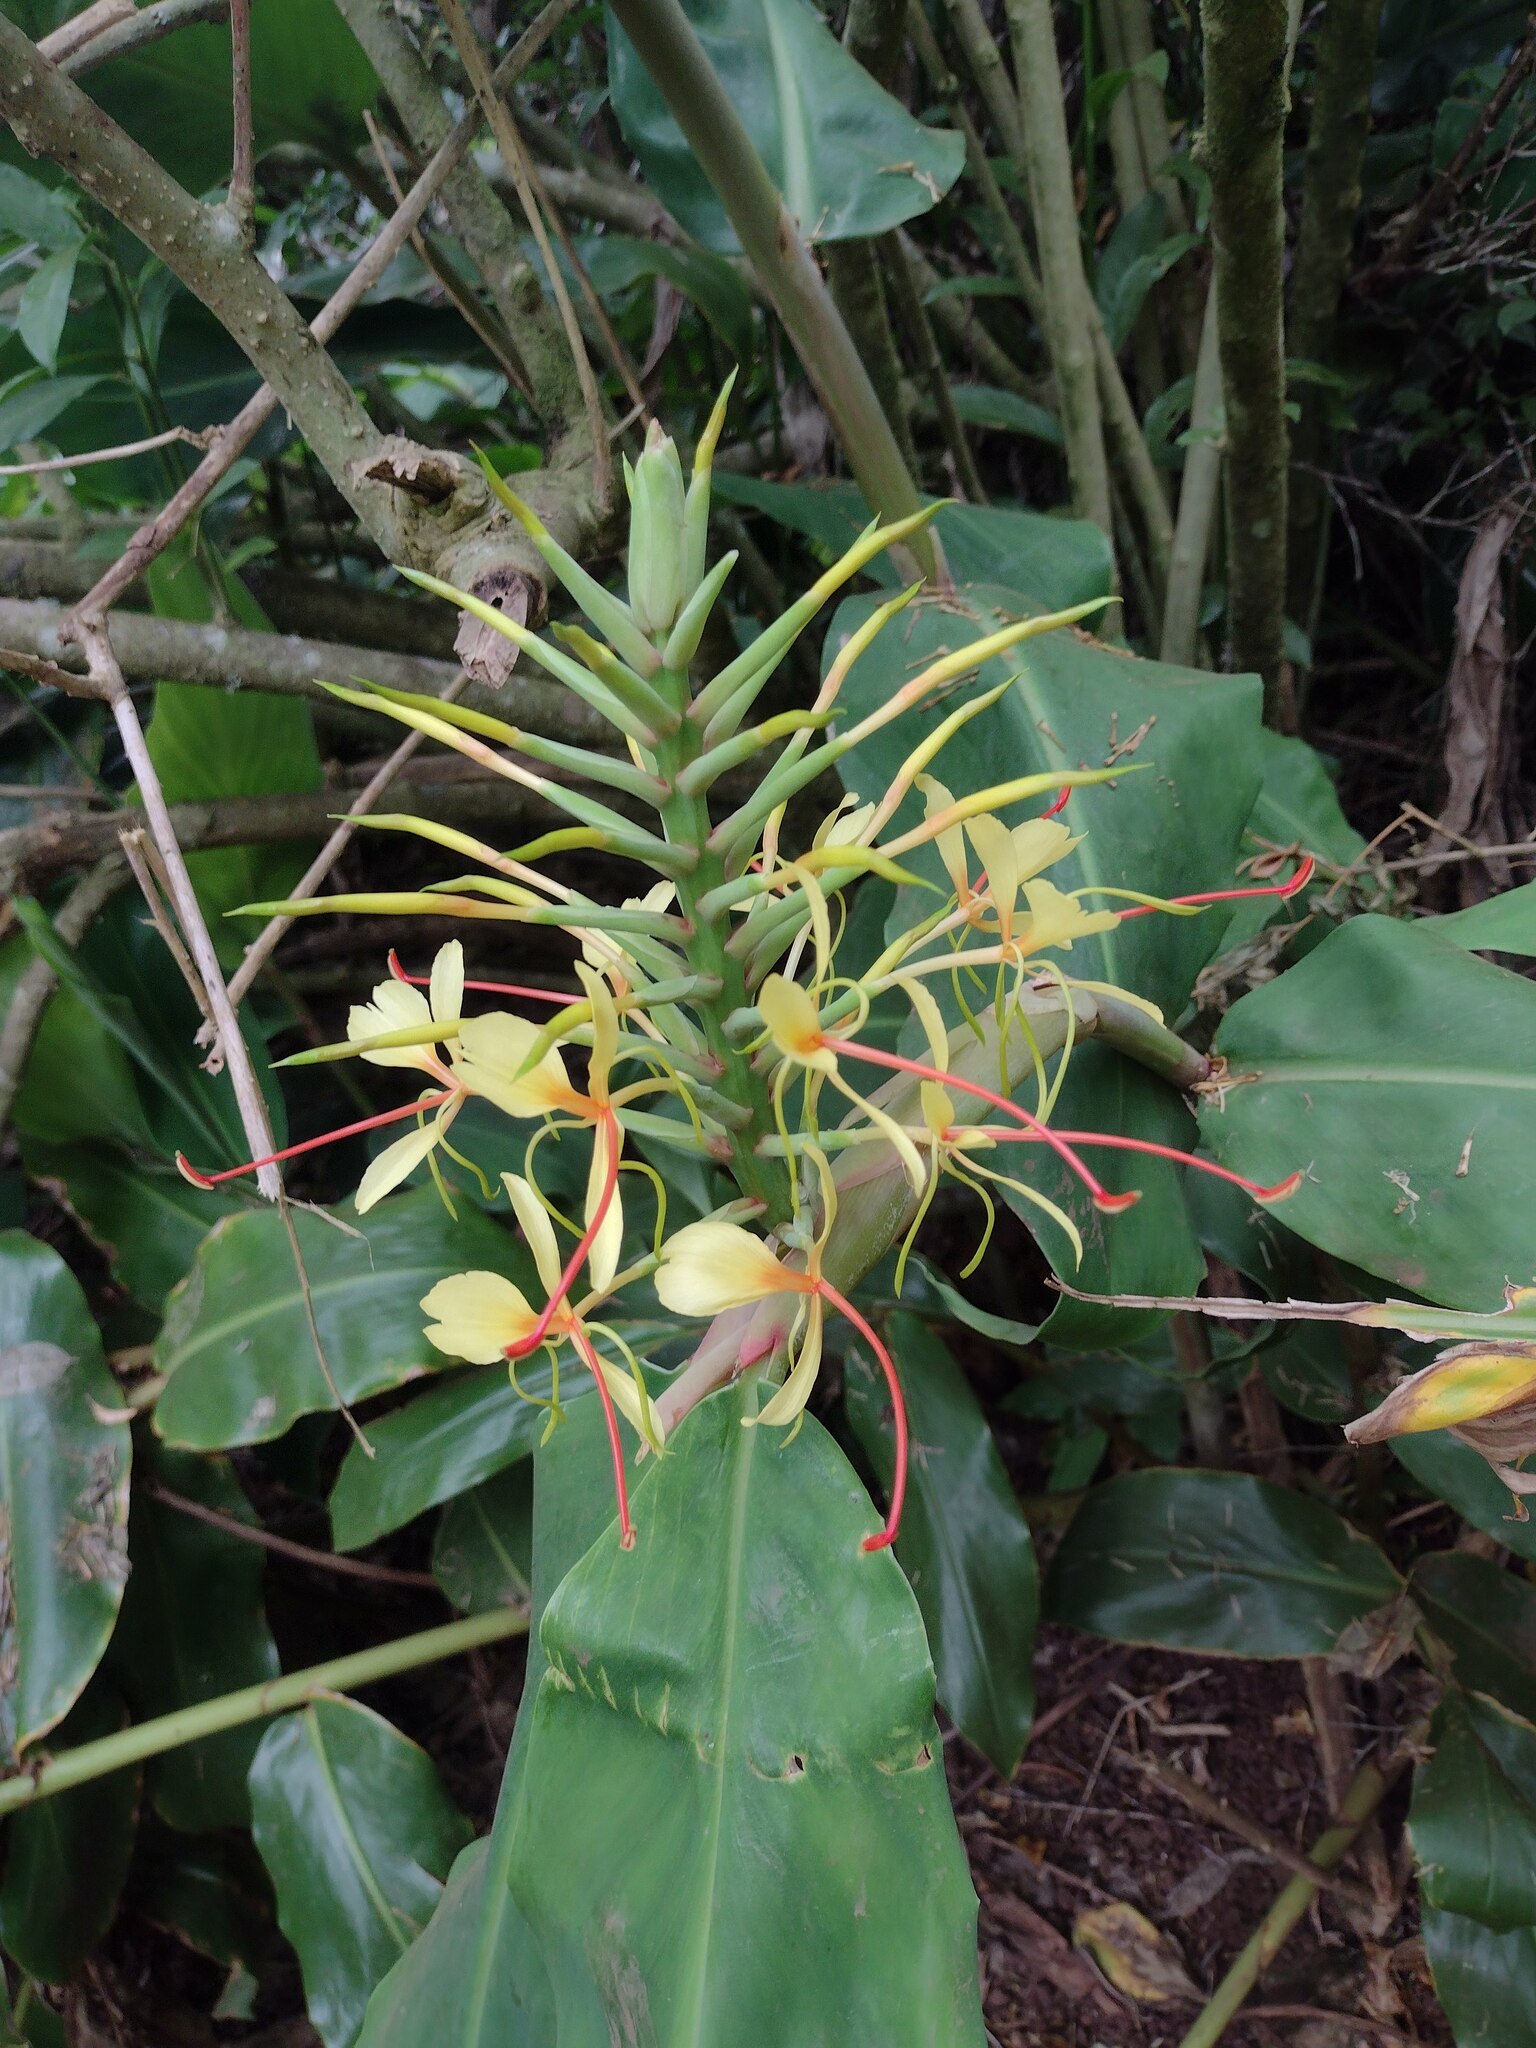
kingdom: Plantae
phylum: Tracheophyta
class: Liliopsida
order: Zingiberales
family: Zingiberaceae
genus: Hedychium
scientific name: Hedychium gardnerianum
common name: Himalayan ginger
